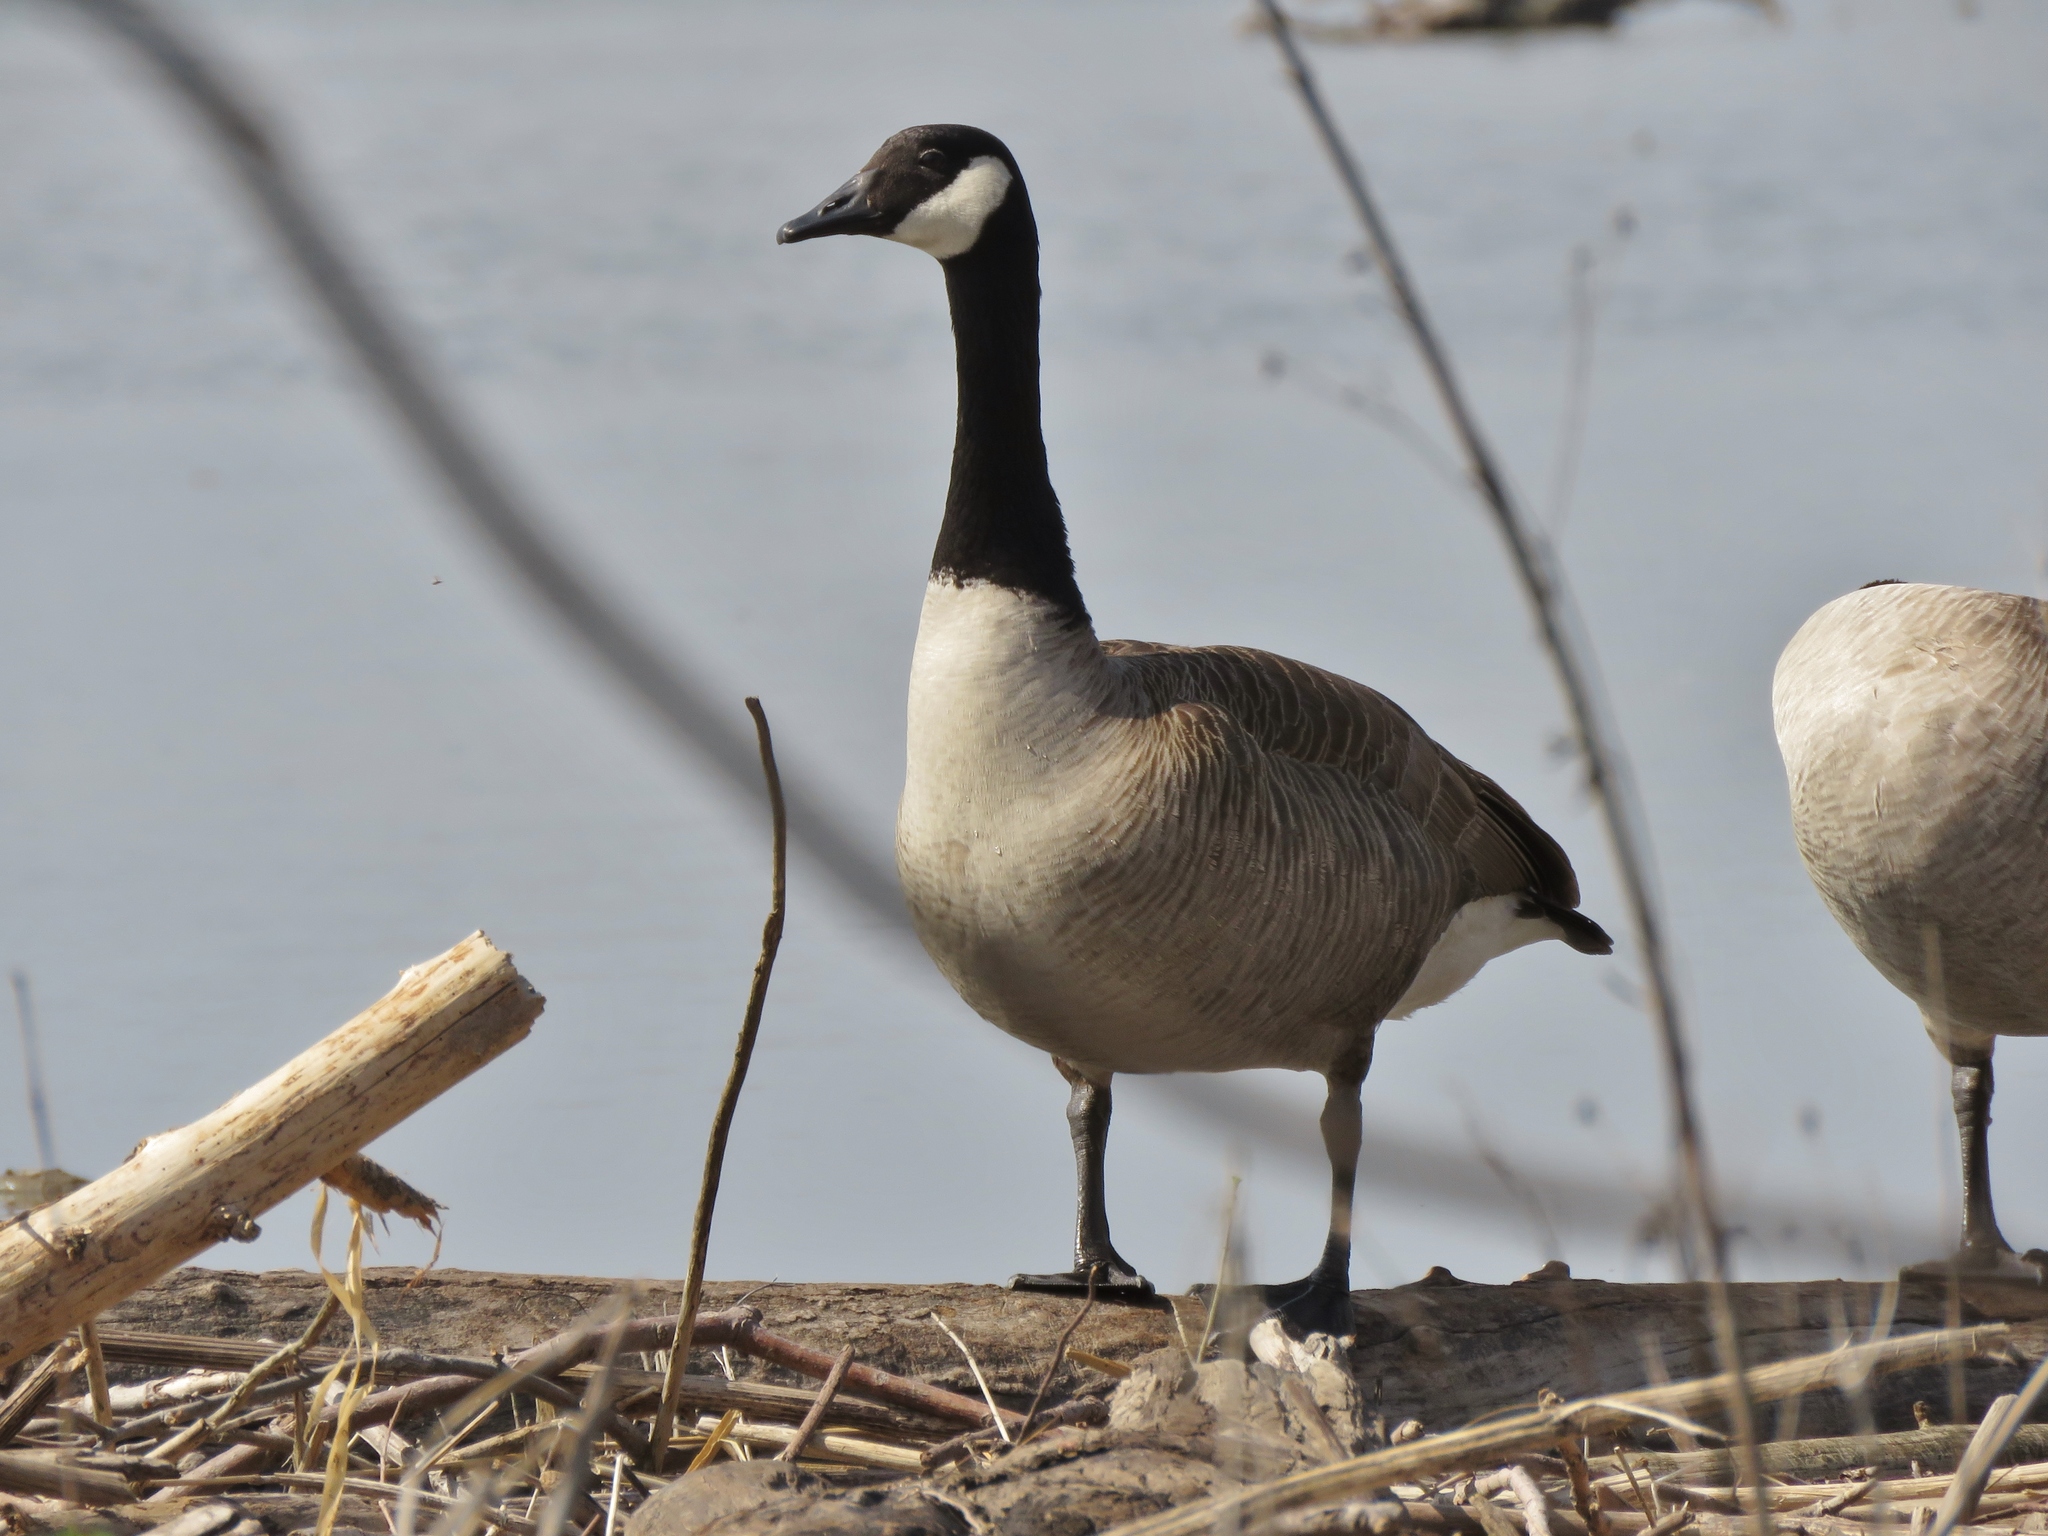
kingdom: Animalia
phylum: Chordata
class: Aves
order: Anseriformes
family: Anatidae
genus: Branta
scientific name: Branta canadensis
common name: Canada goose
